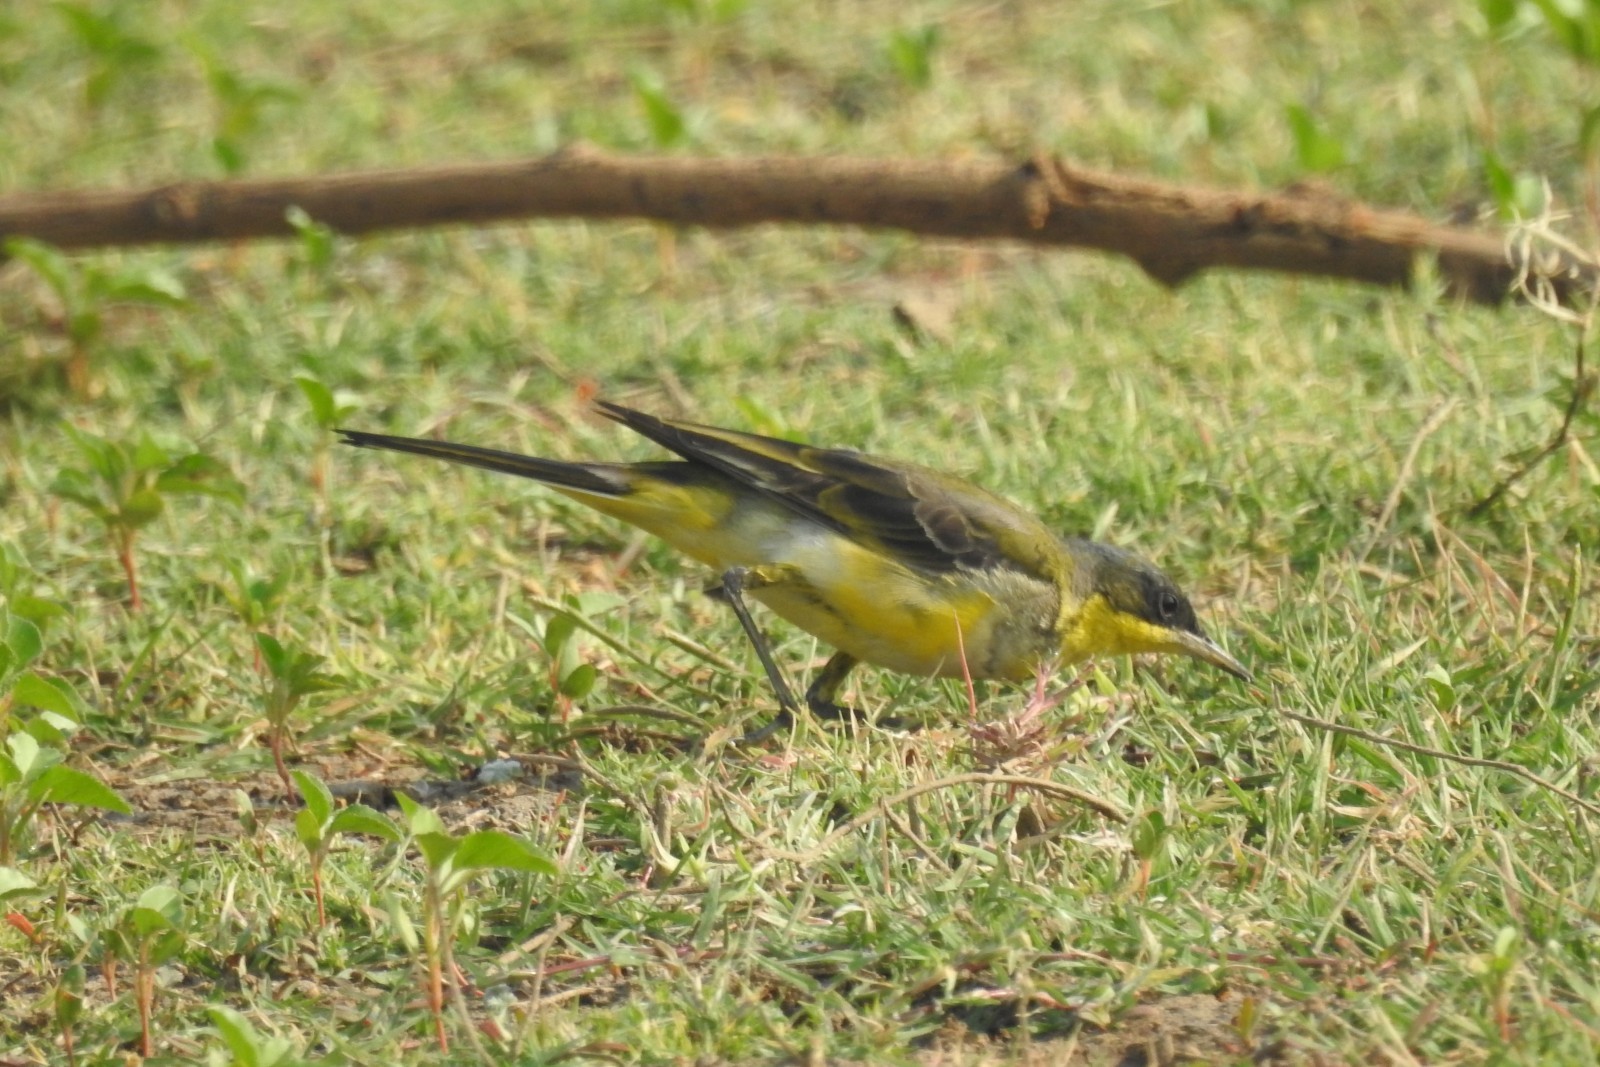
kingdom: Animalia
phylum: Chordata
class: Aves
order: Passeriformes
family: Motacillidae
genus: Motacilla
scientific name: Motacilla flava
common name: Western yellow wagtail
